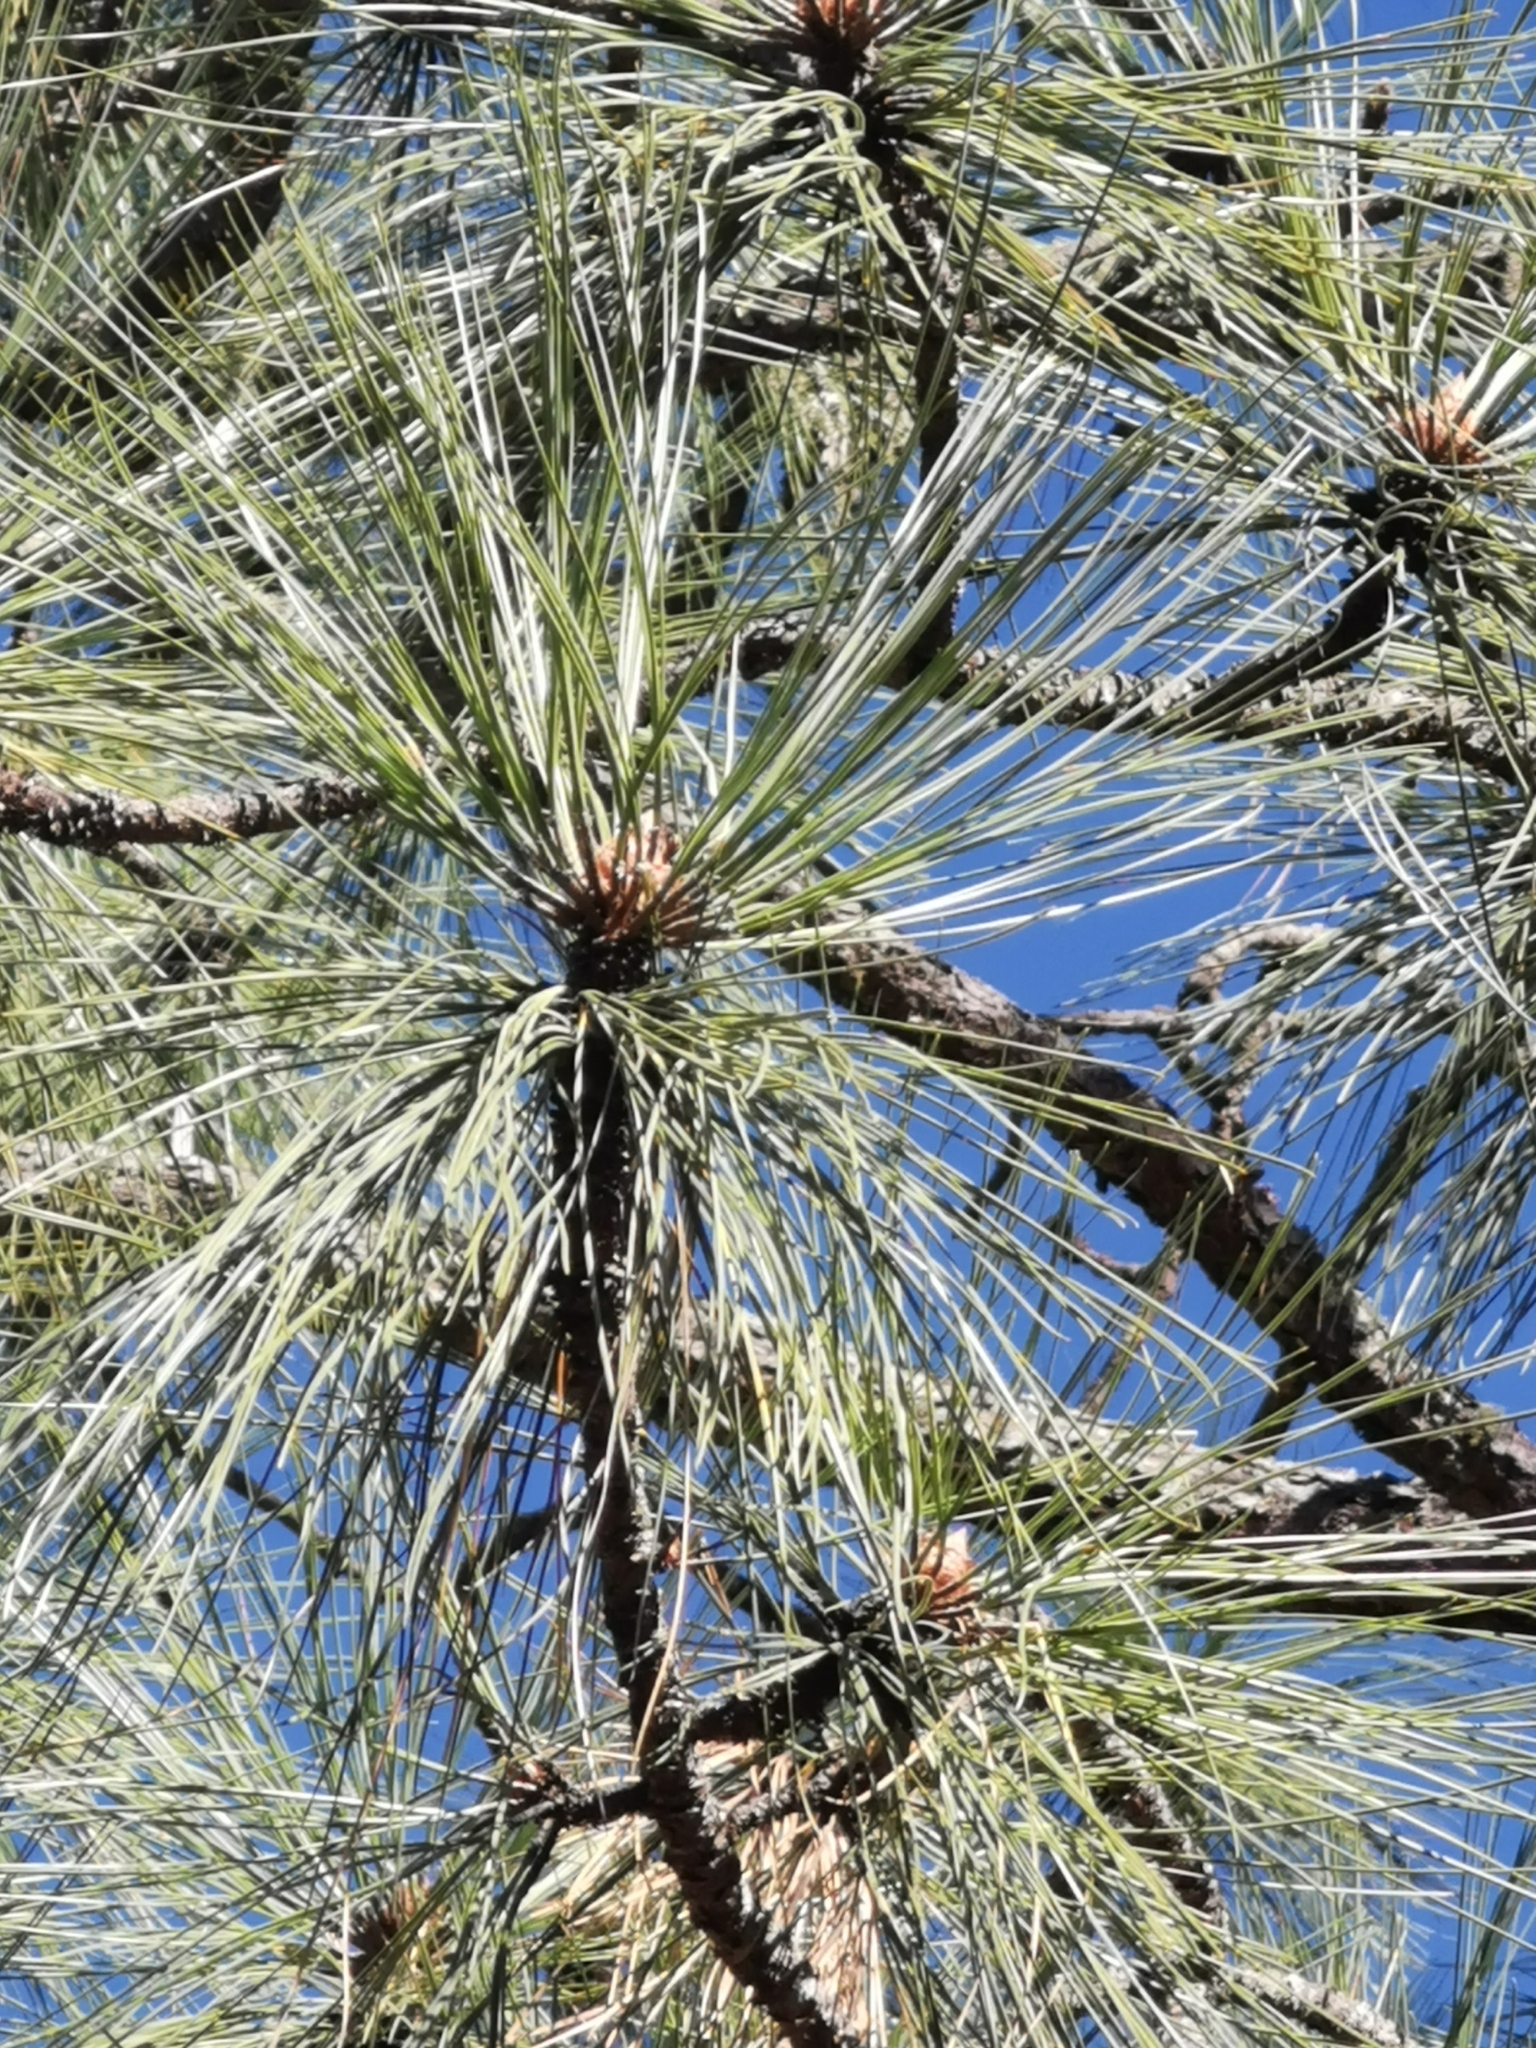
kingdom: Plantae
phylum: Tracheophyta
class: Pinopsida
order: Pinales
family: Pinaceae
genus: Pinus
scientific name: Pinus engelmannii
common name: Apache pine
